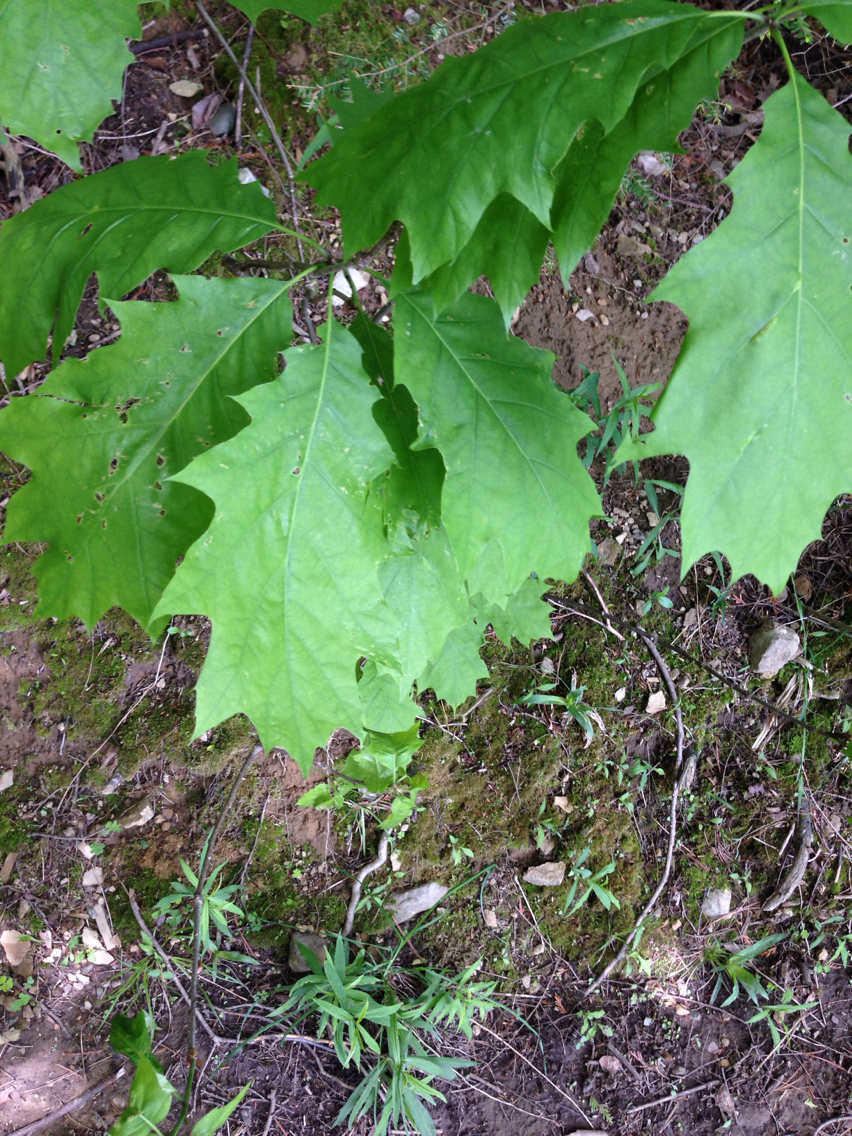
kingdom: Plantae
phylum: Tracheophyta
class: Magnoliopsida
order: Fagales
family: Fagaceae
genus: Quercus
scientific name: Quercus rubra
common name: Red oak
